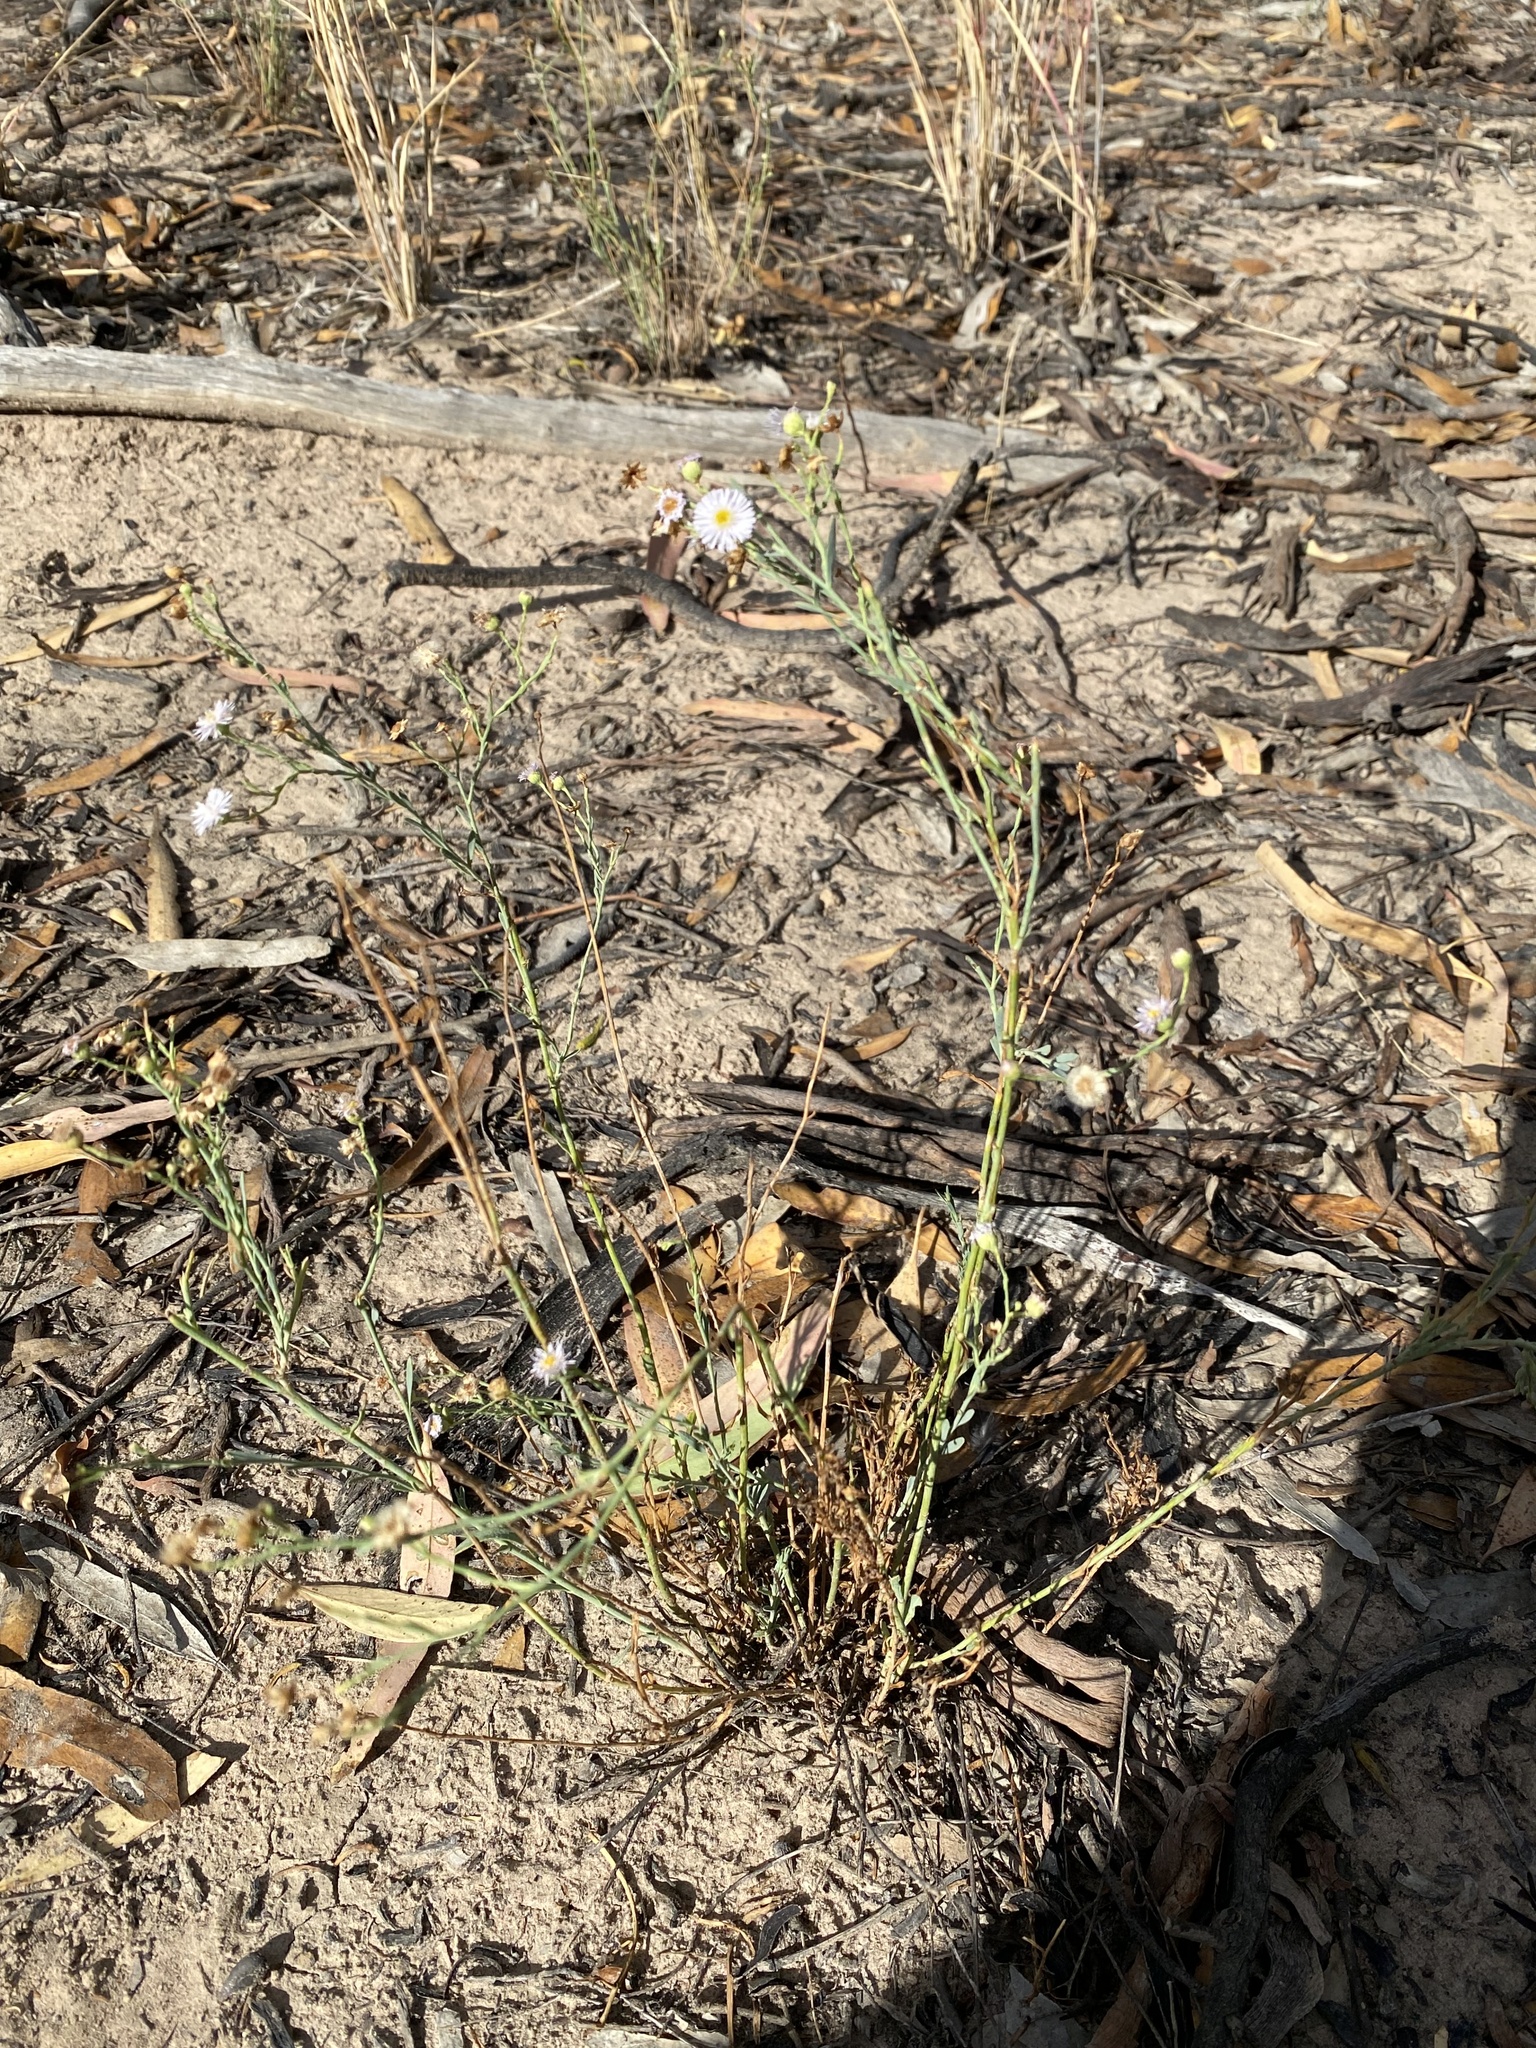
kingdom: Plantae
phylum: Tracheophyta
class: Magnoliopsida
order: Asterales
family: Asteraceae
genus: Minuria
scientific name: Minuria integerrima
